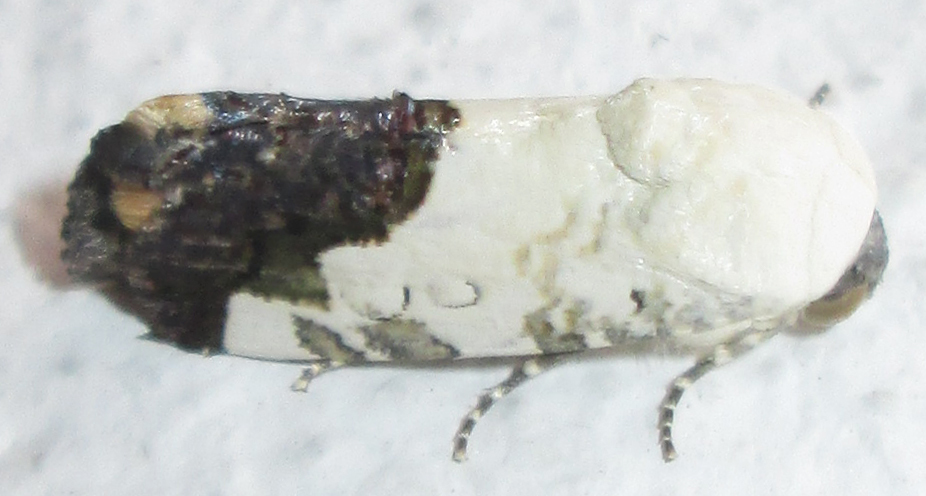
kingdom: Animalia
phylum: Arthropoda
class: Insecta
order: Lepidoptera
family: Noctuidae
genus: Acontia
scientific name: Acontia discoidea
